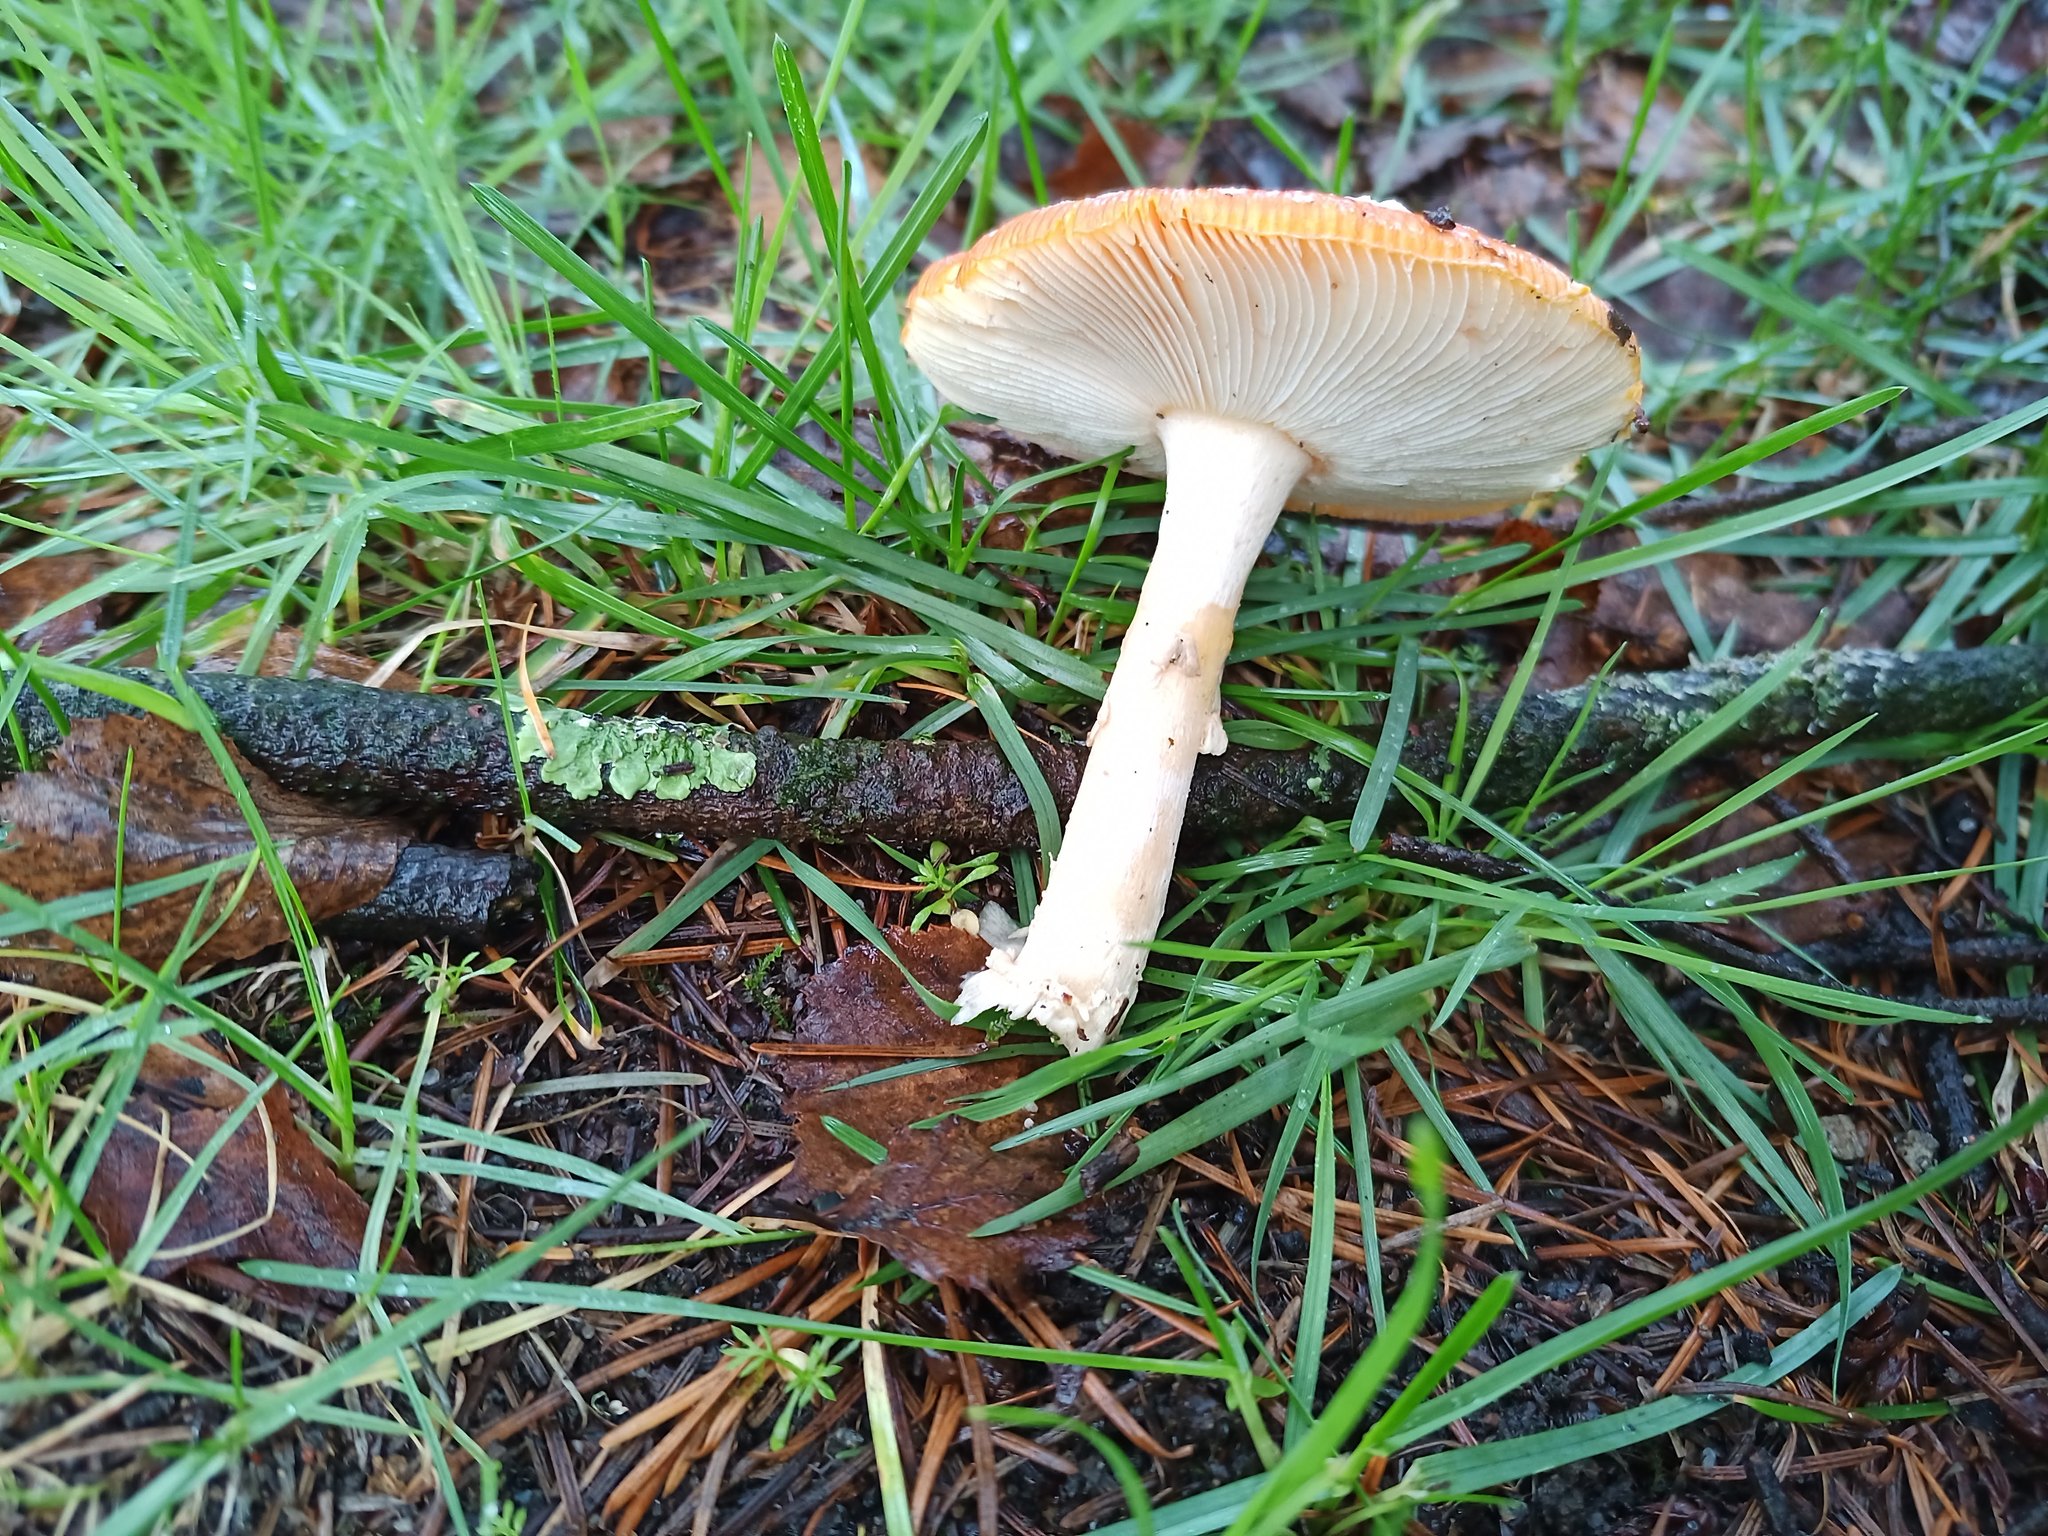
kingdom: Fungi
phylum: Basidiomycota
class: Agaricomycetes
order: Agaricales
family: Amanitaceae
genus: Amanita
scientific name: Amanita muscaria
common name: Fly agaric
